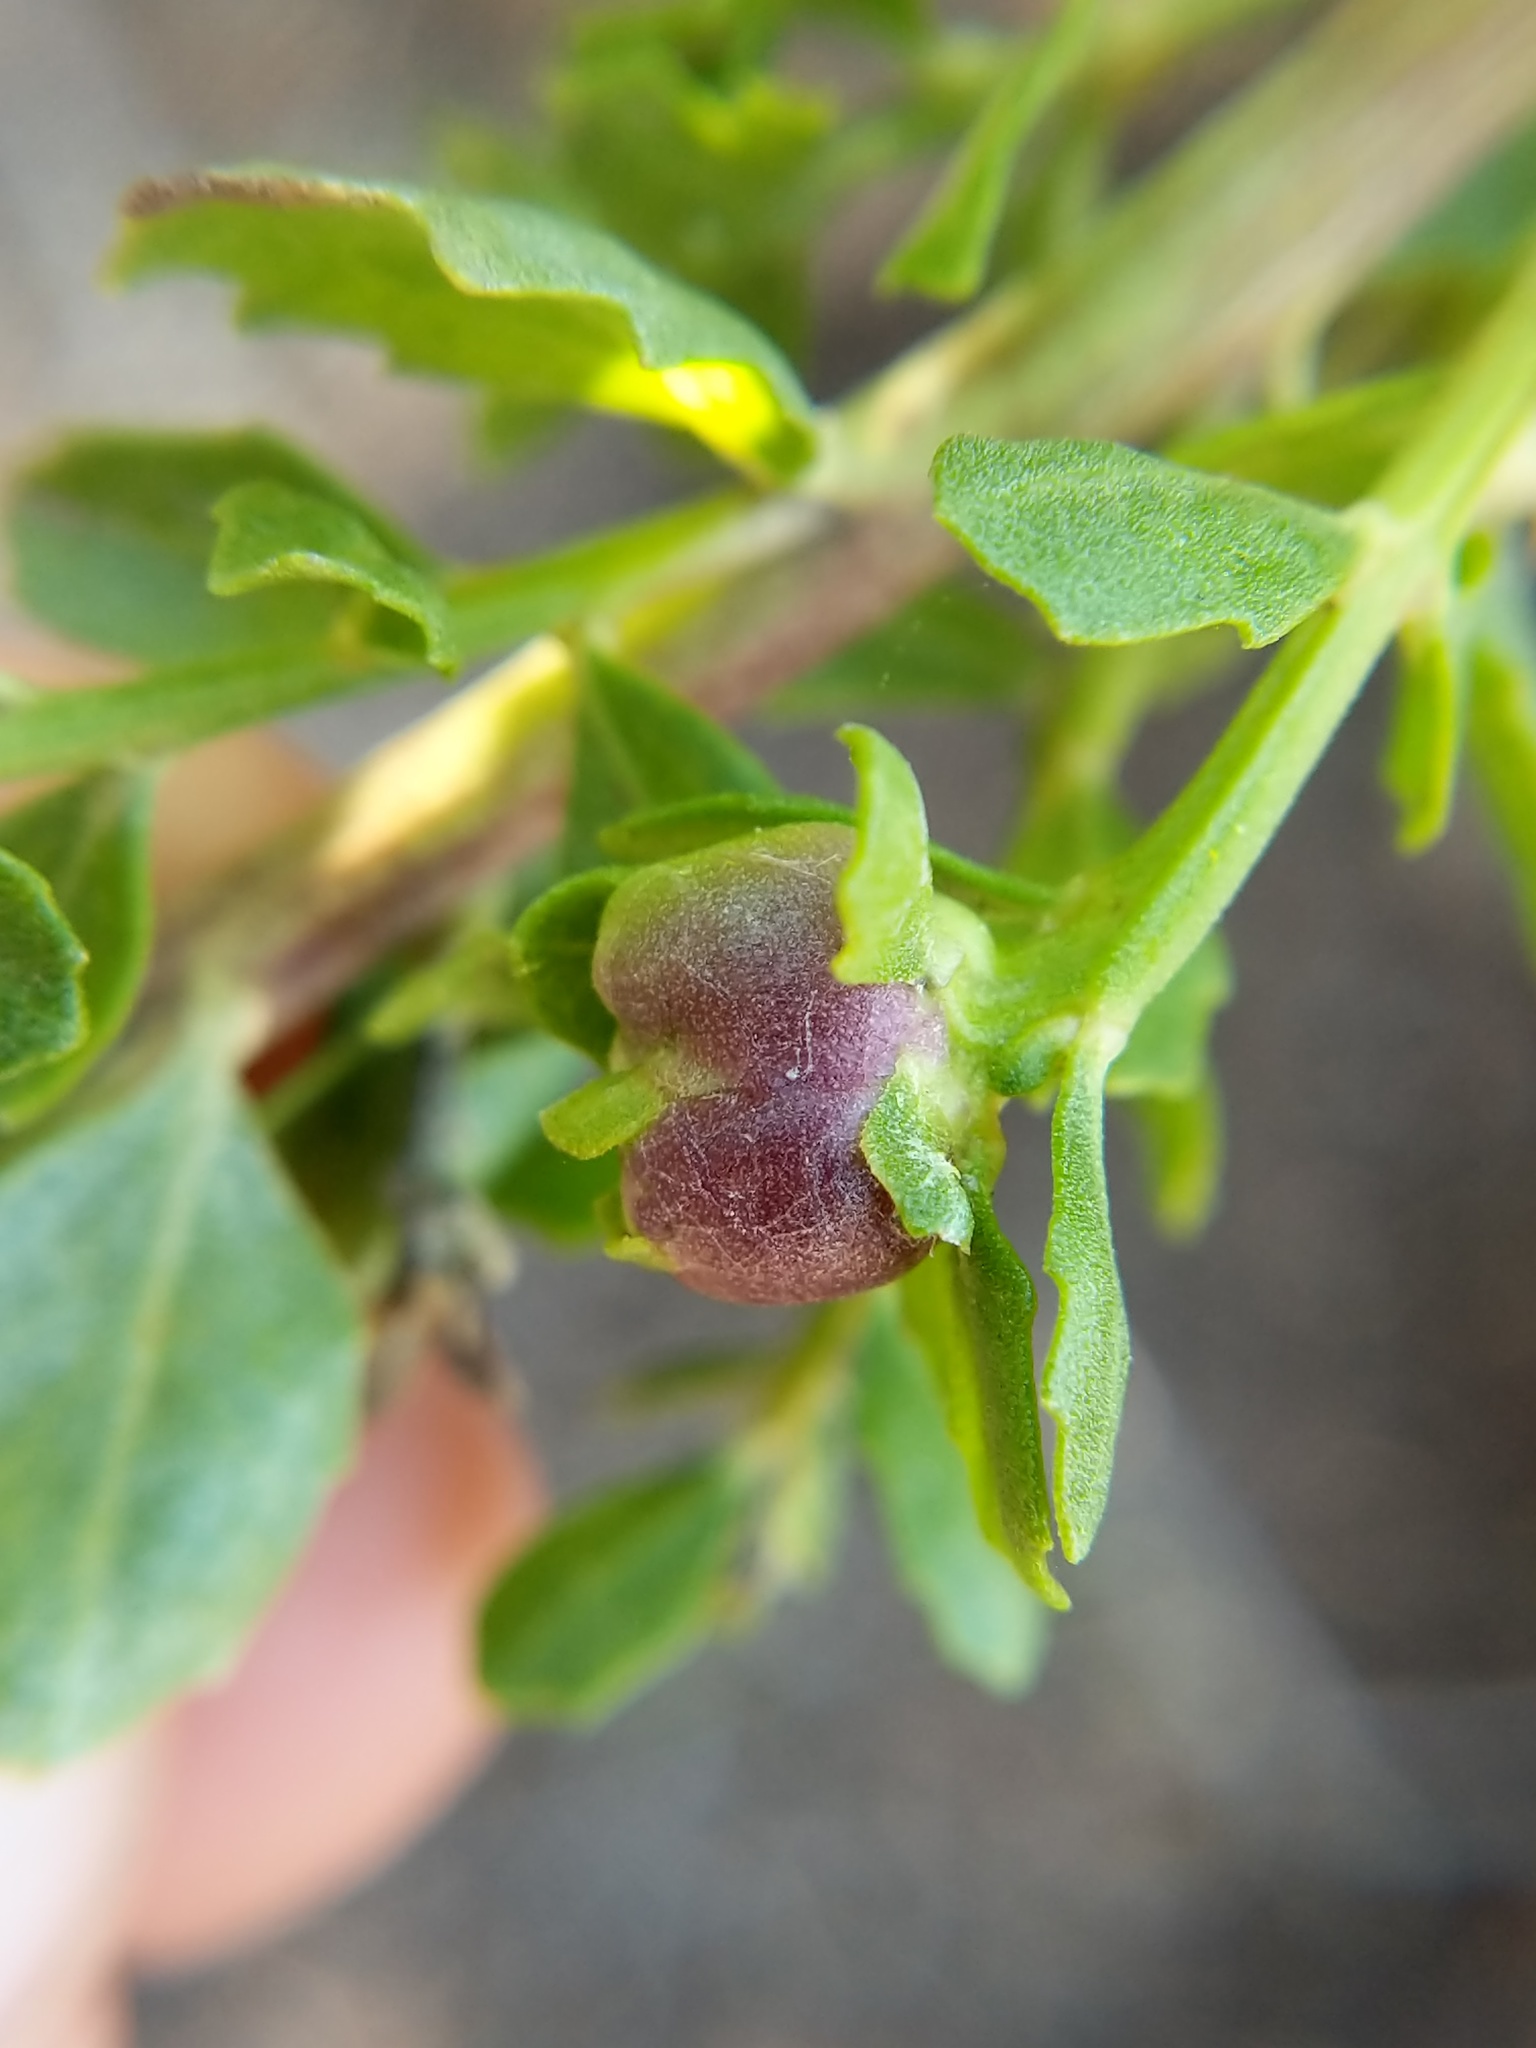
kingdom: Animalia
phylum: Arthropoda
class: Insecta
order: Diptera
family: Cecidomyiidae
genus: Rhopalomyia
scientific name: Rhopalomyia californica
